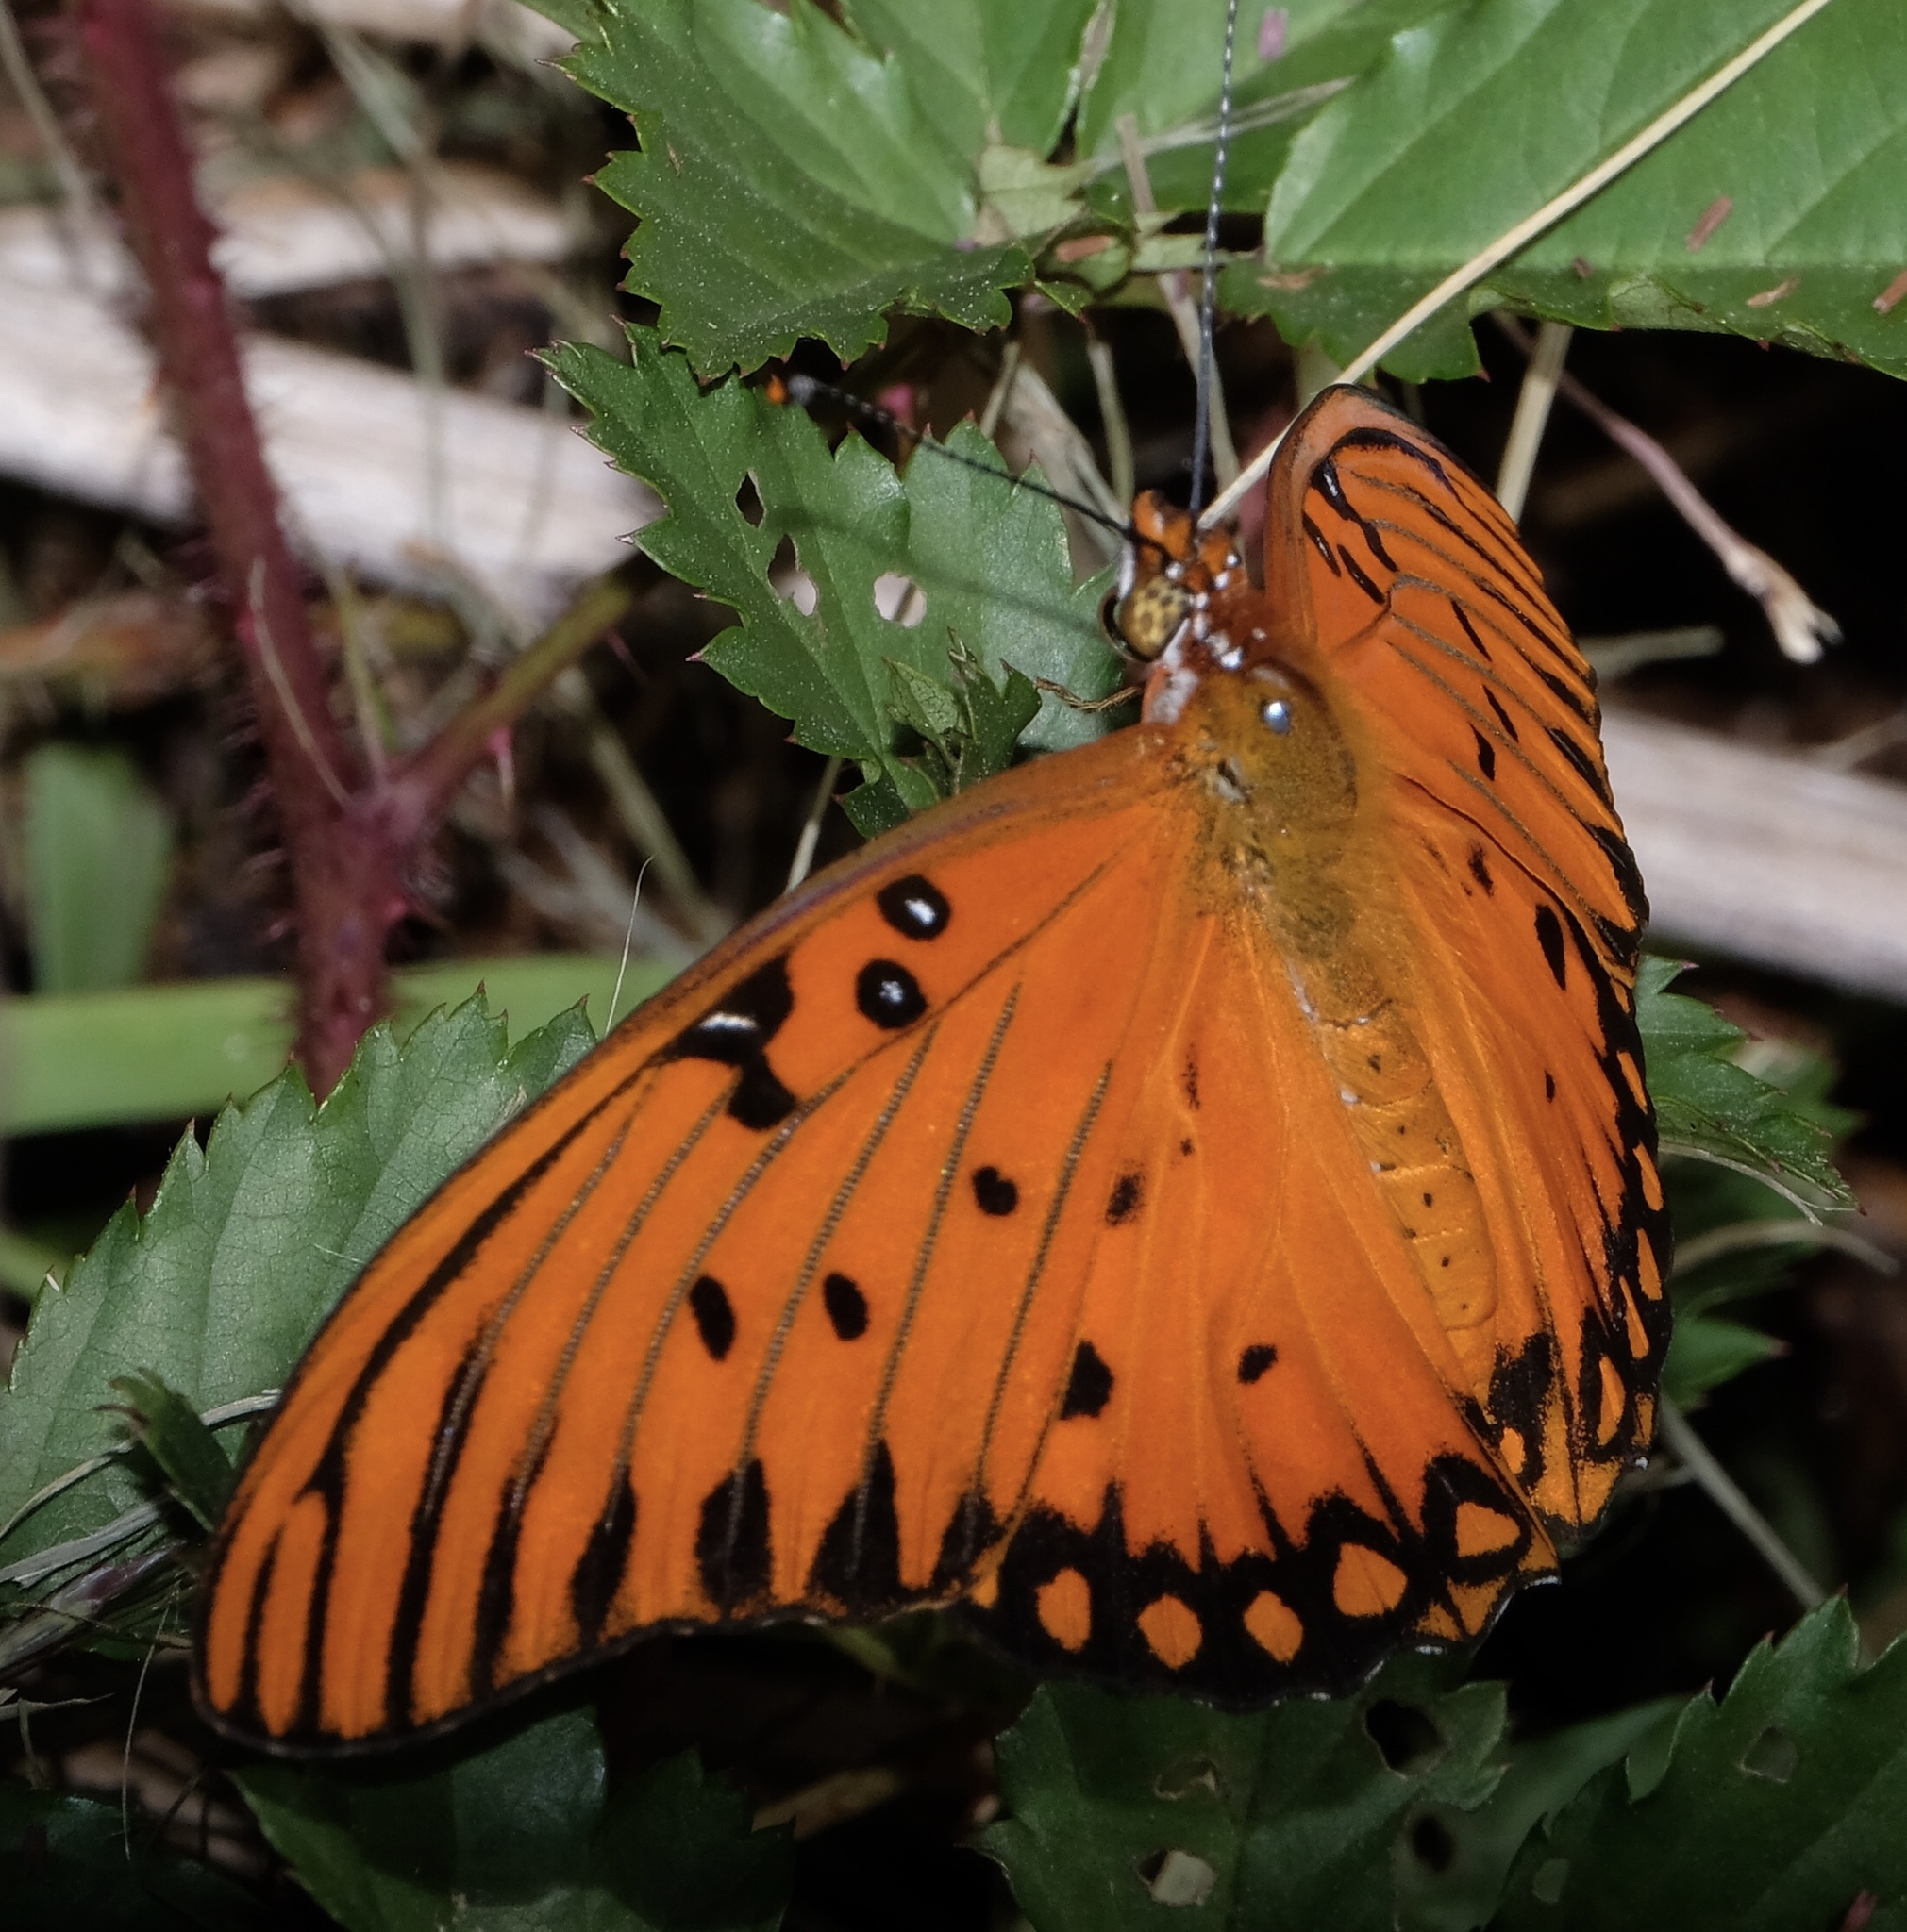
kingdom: Animalia
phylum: Arthropoda
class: Insecta
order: Lepidoptera
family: Nymphalidae
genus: Dione
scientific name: Dione vanillae
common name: Gulf fritillary
